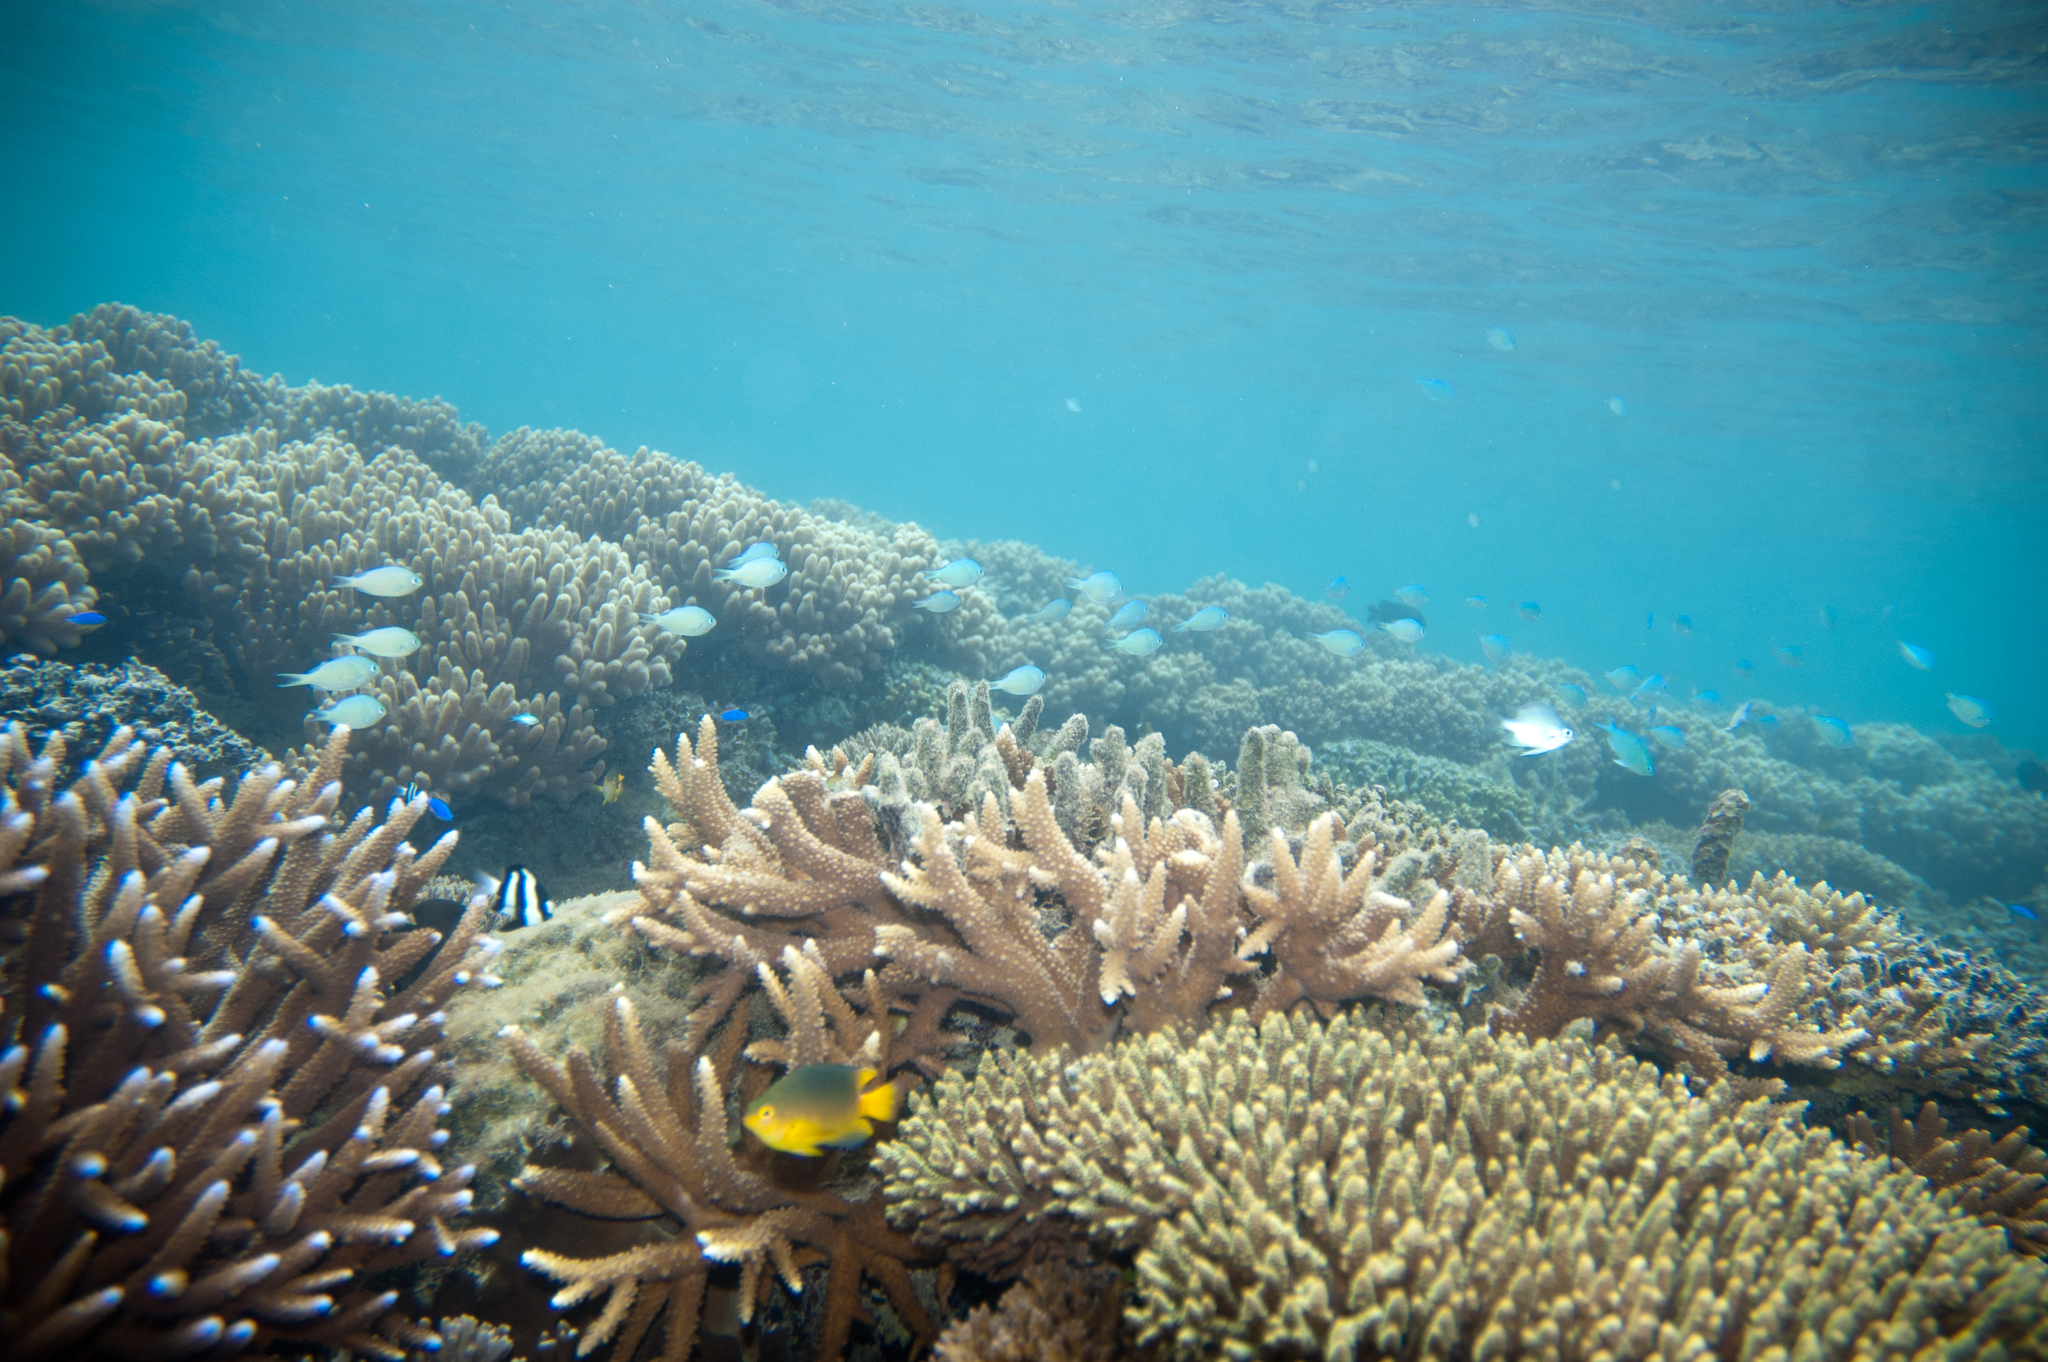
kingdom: Animalia
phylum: Chordata
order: Perciformes
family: Pomacentridae
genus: Pomacentrus
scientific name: Pomacentrus maafu
